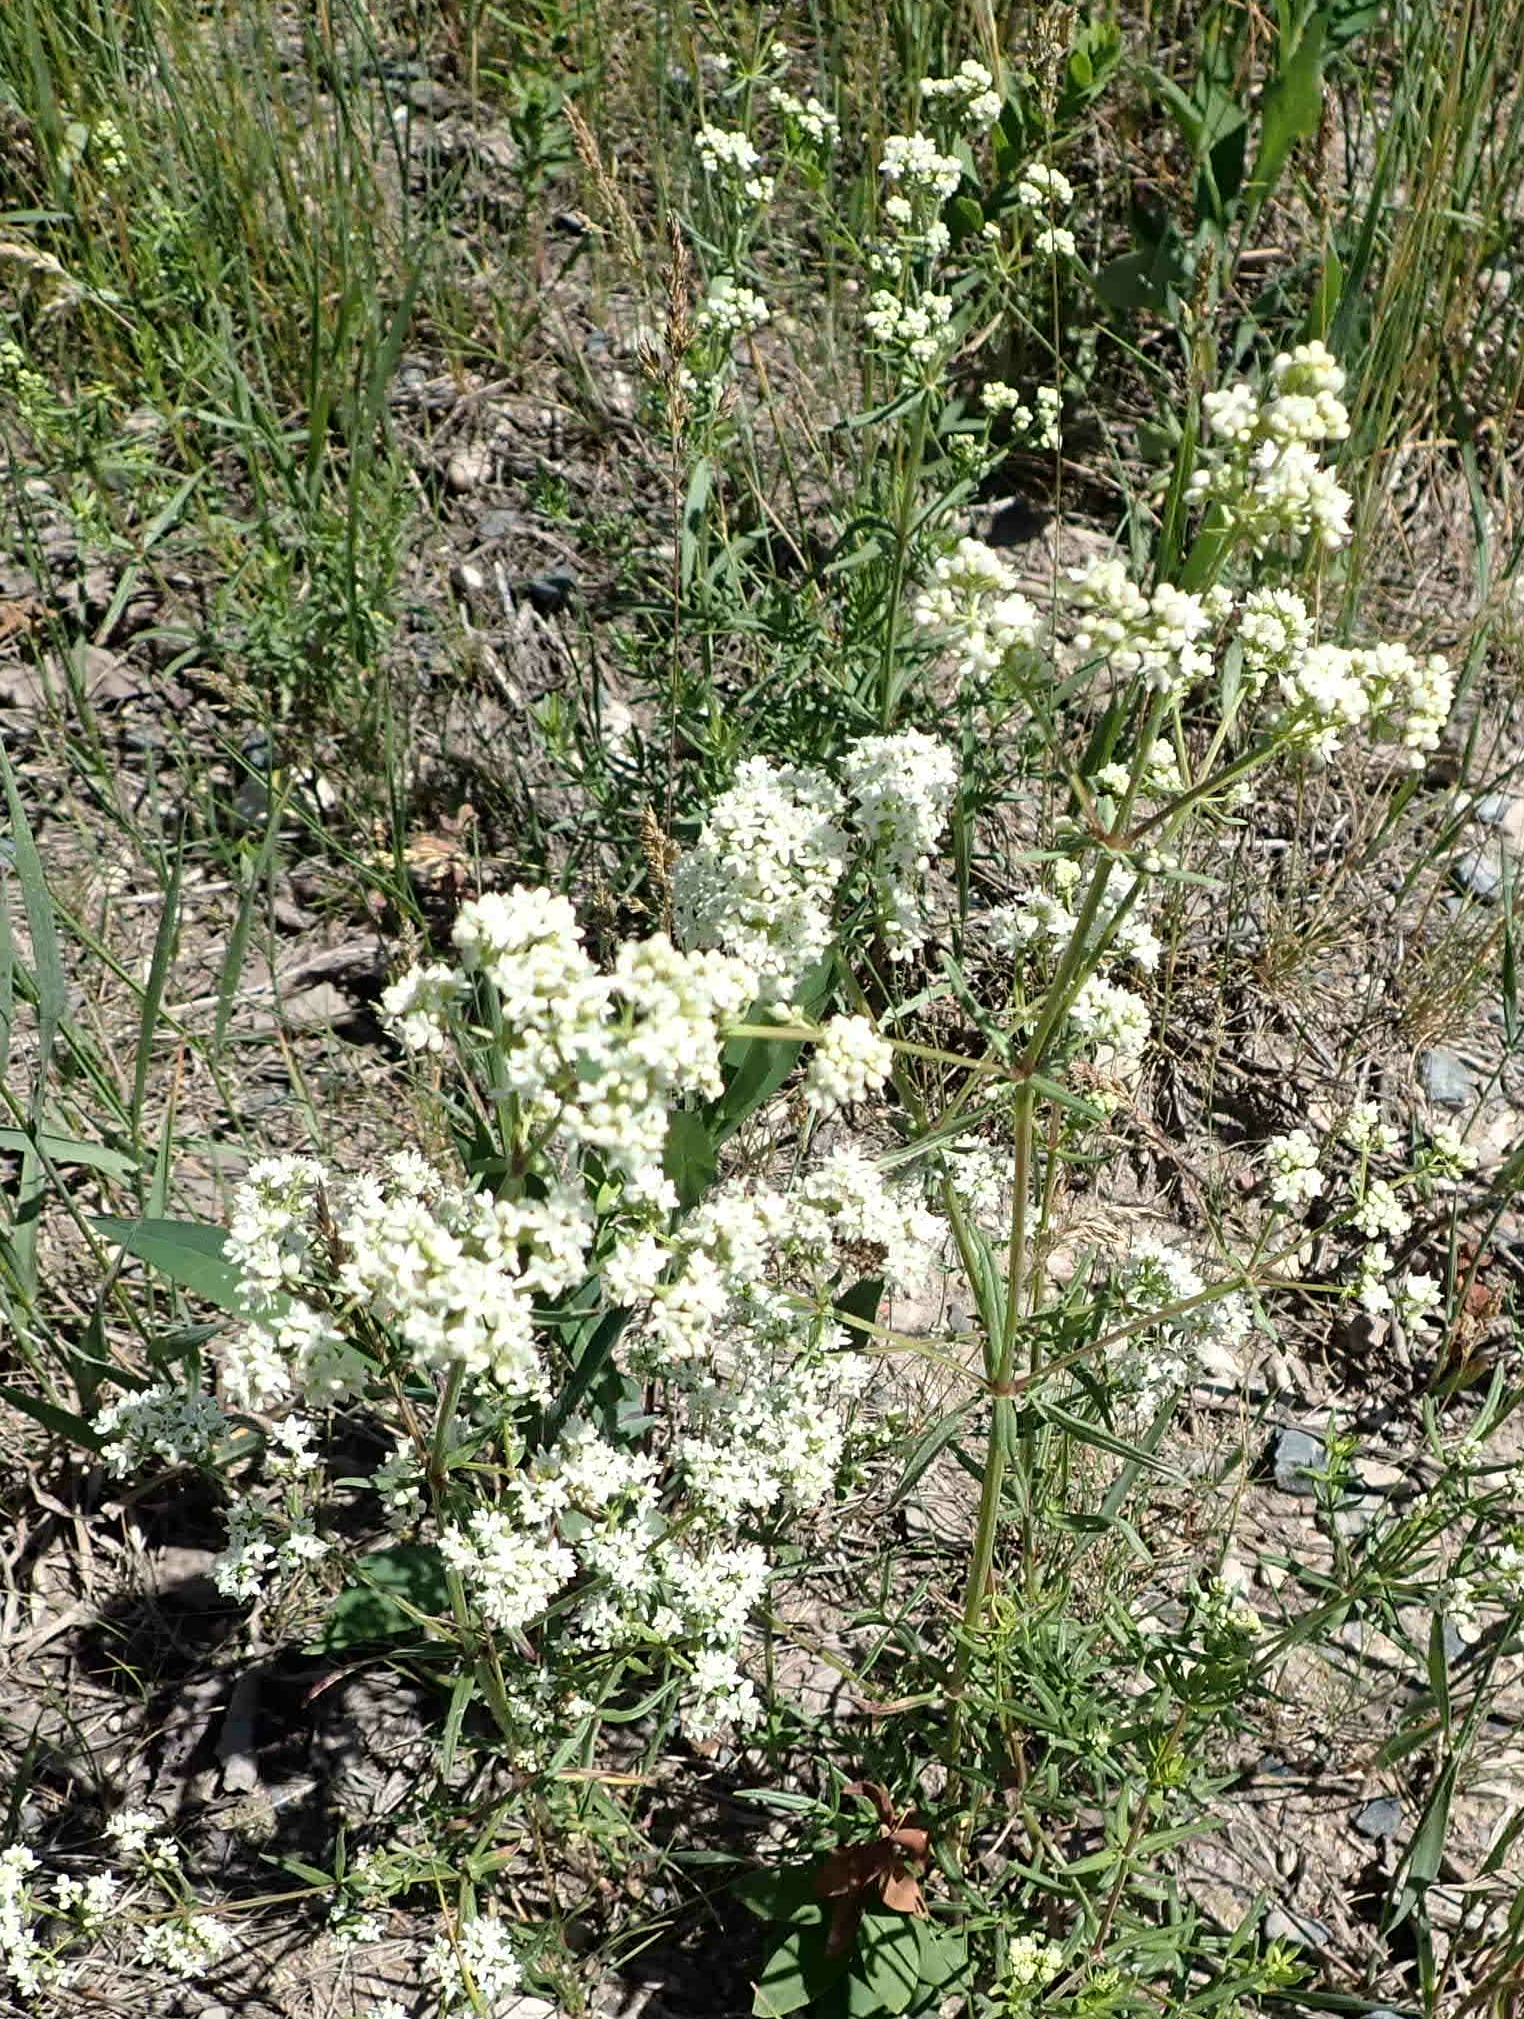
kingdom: Plantae
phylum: Tracheophyta
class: Magnoliopsida
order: Gentianales
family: Rubiaceae
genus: Galium
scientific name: Galium boreale
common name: Northern bedstraw
